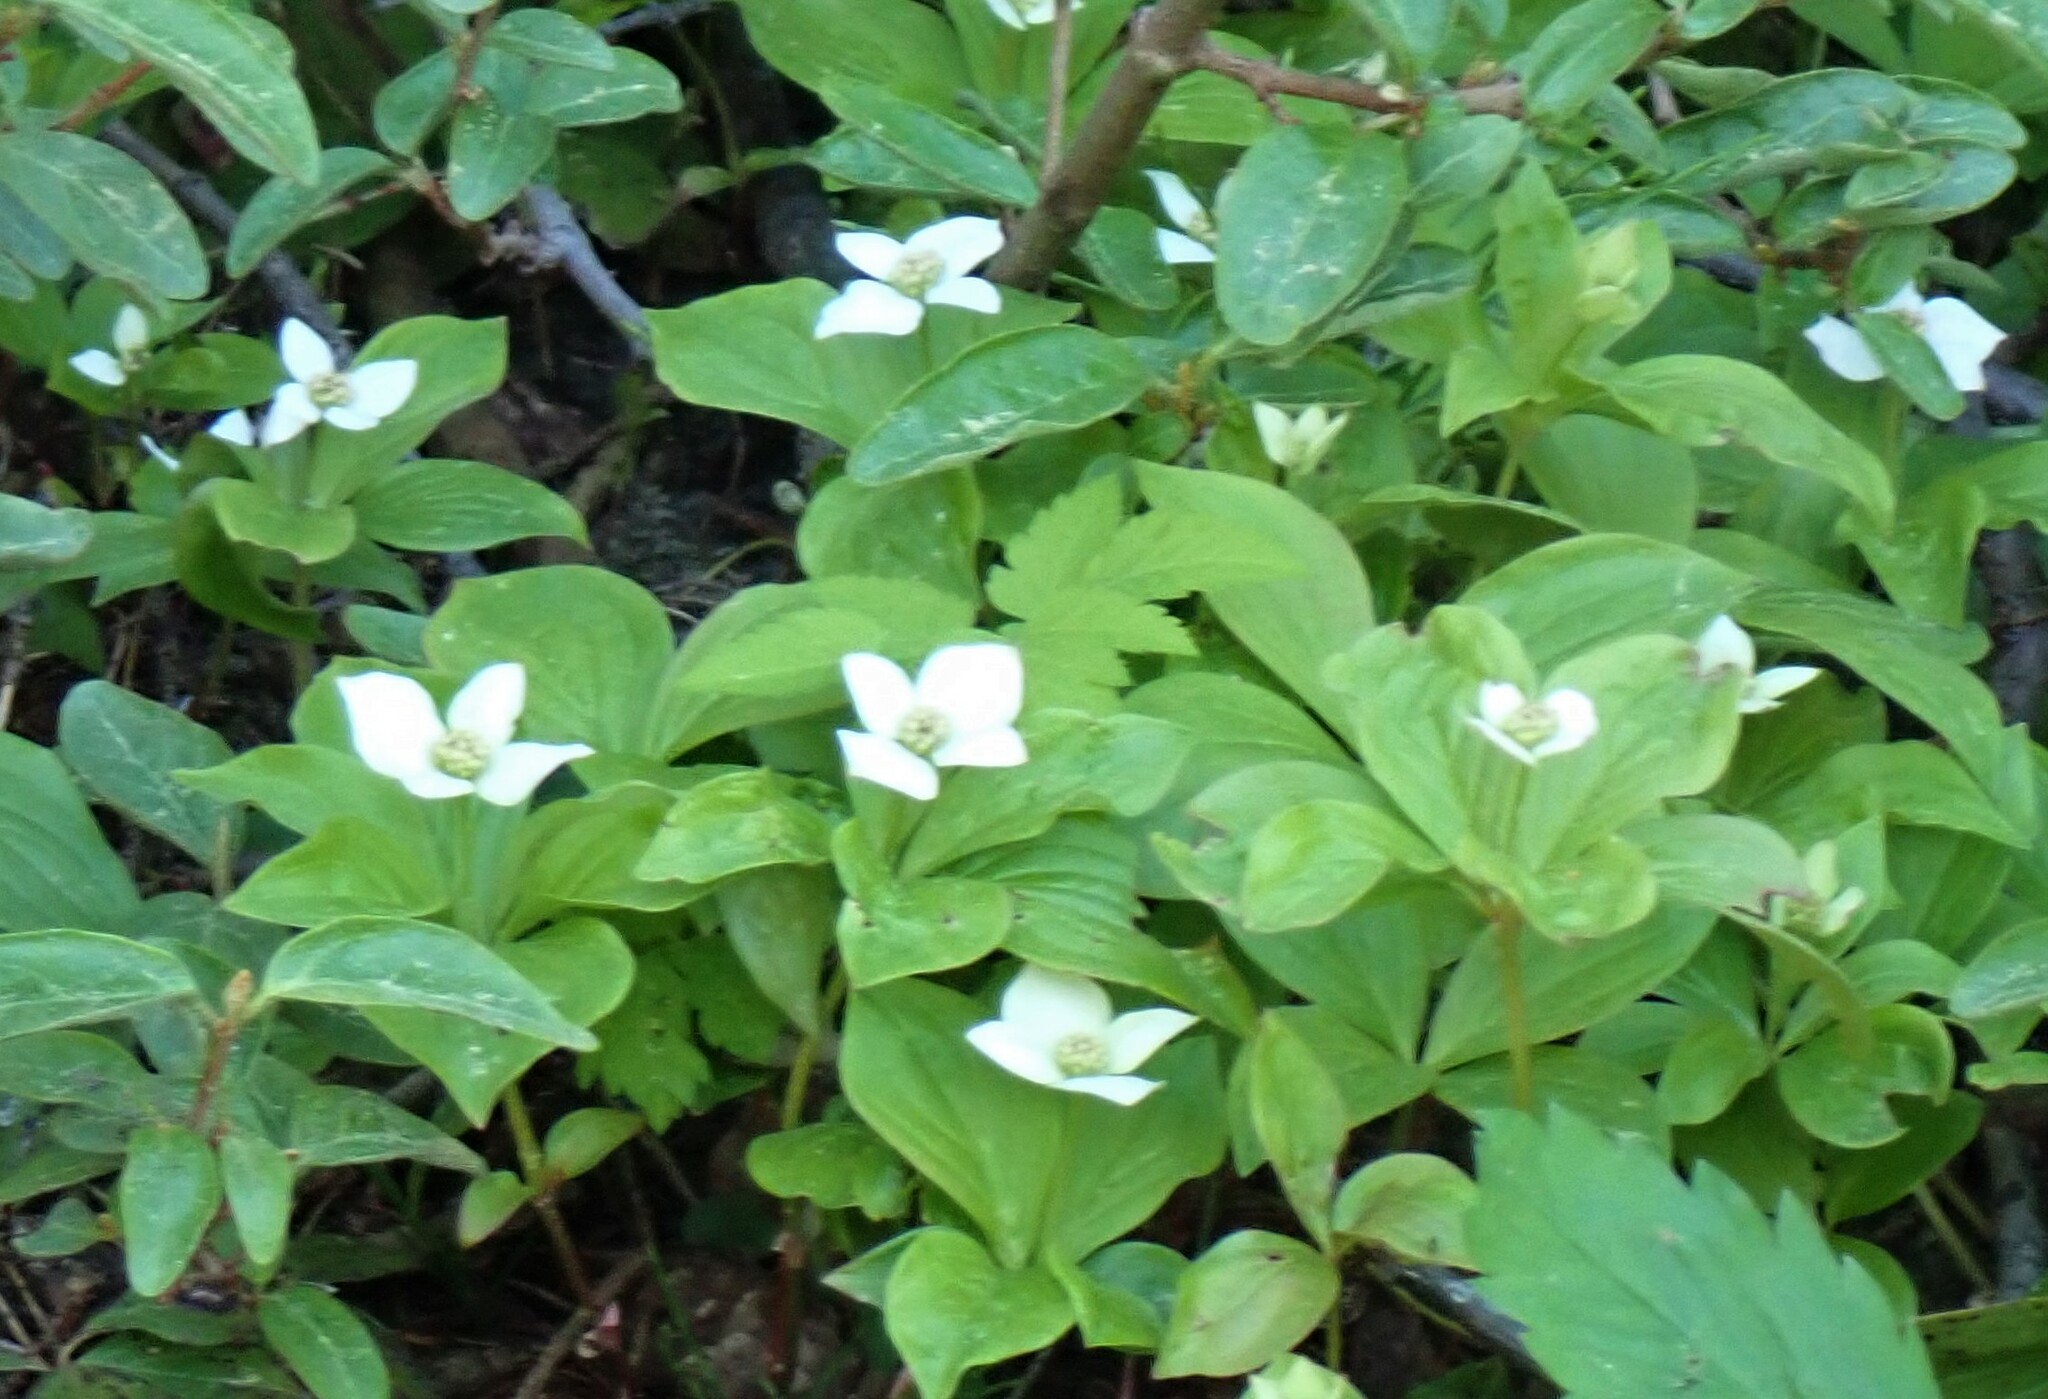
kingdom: Plantae
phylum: Tracheophyta
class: Magnoliopsida
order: Cornales
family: Cornaceae
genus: Cornus
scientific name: Cornus canadensis
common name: Creeping dogwood
